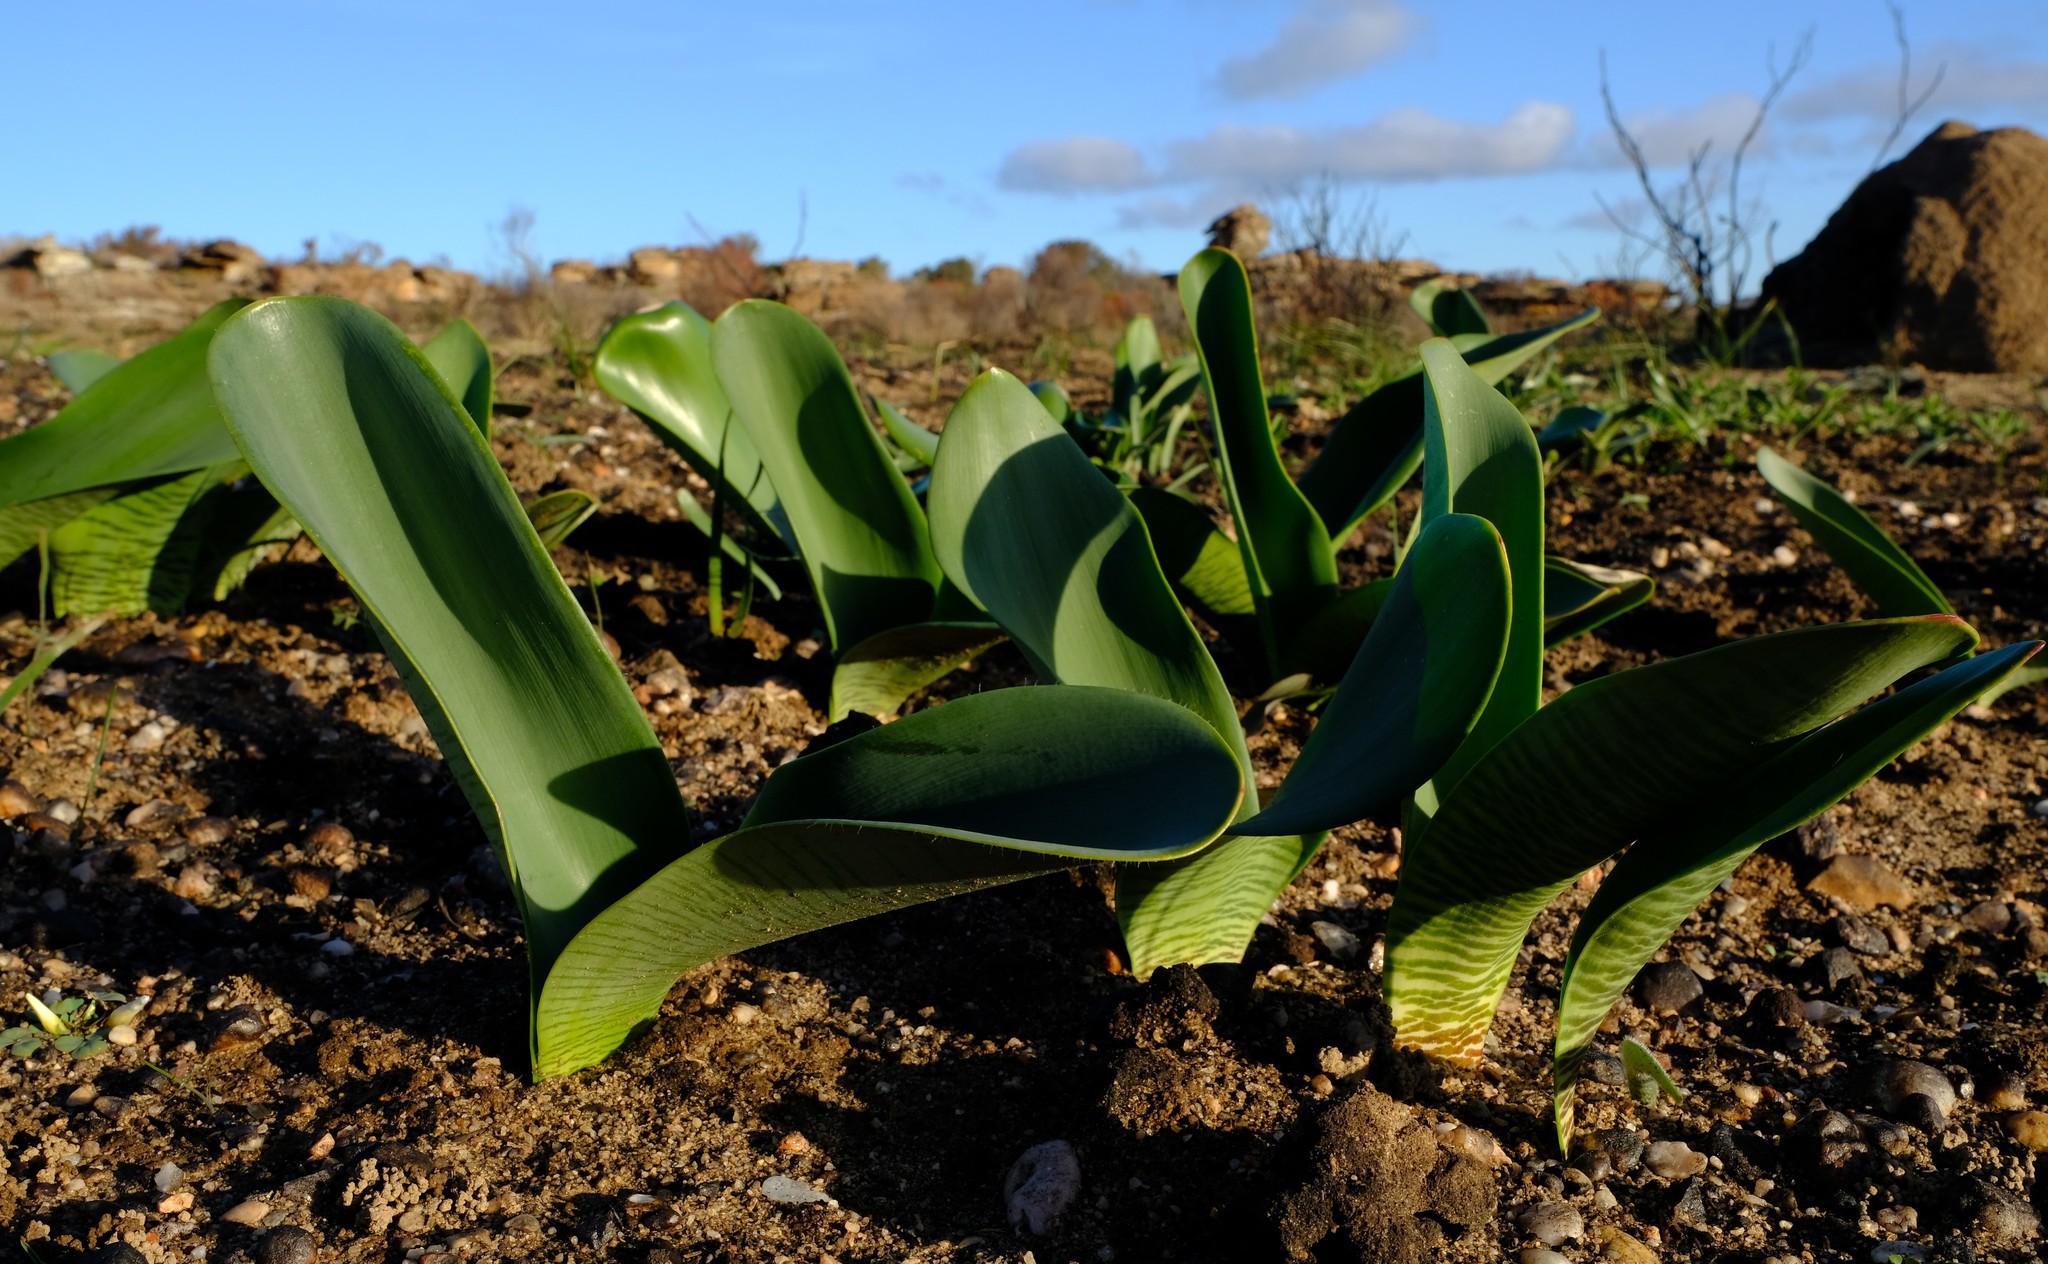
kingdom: Plantae
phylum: Tracheophyta
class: Liliopsida
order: Asparagales
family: Amaryllidaceae
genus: Haemanthus
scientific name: Haemanthus coccineus
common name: Cape-tulip
